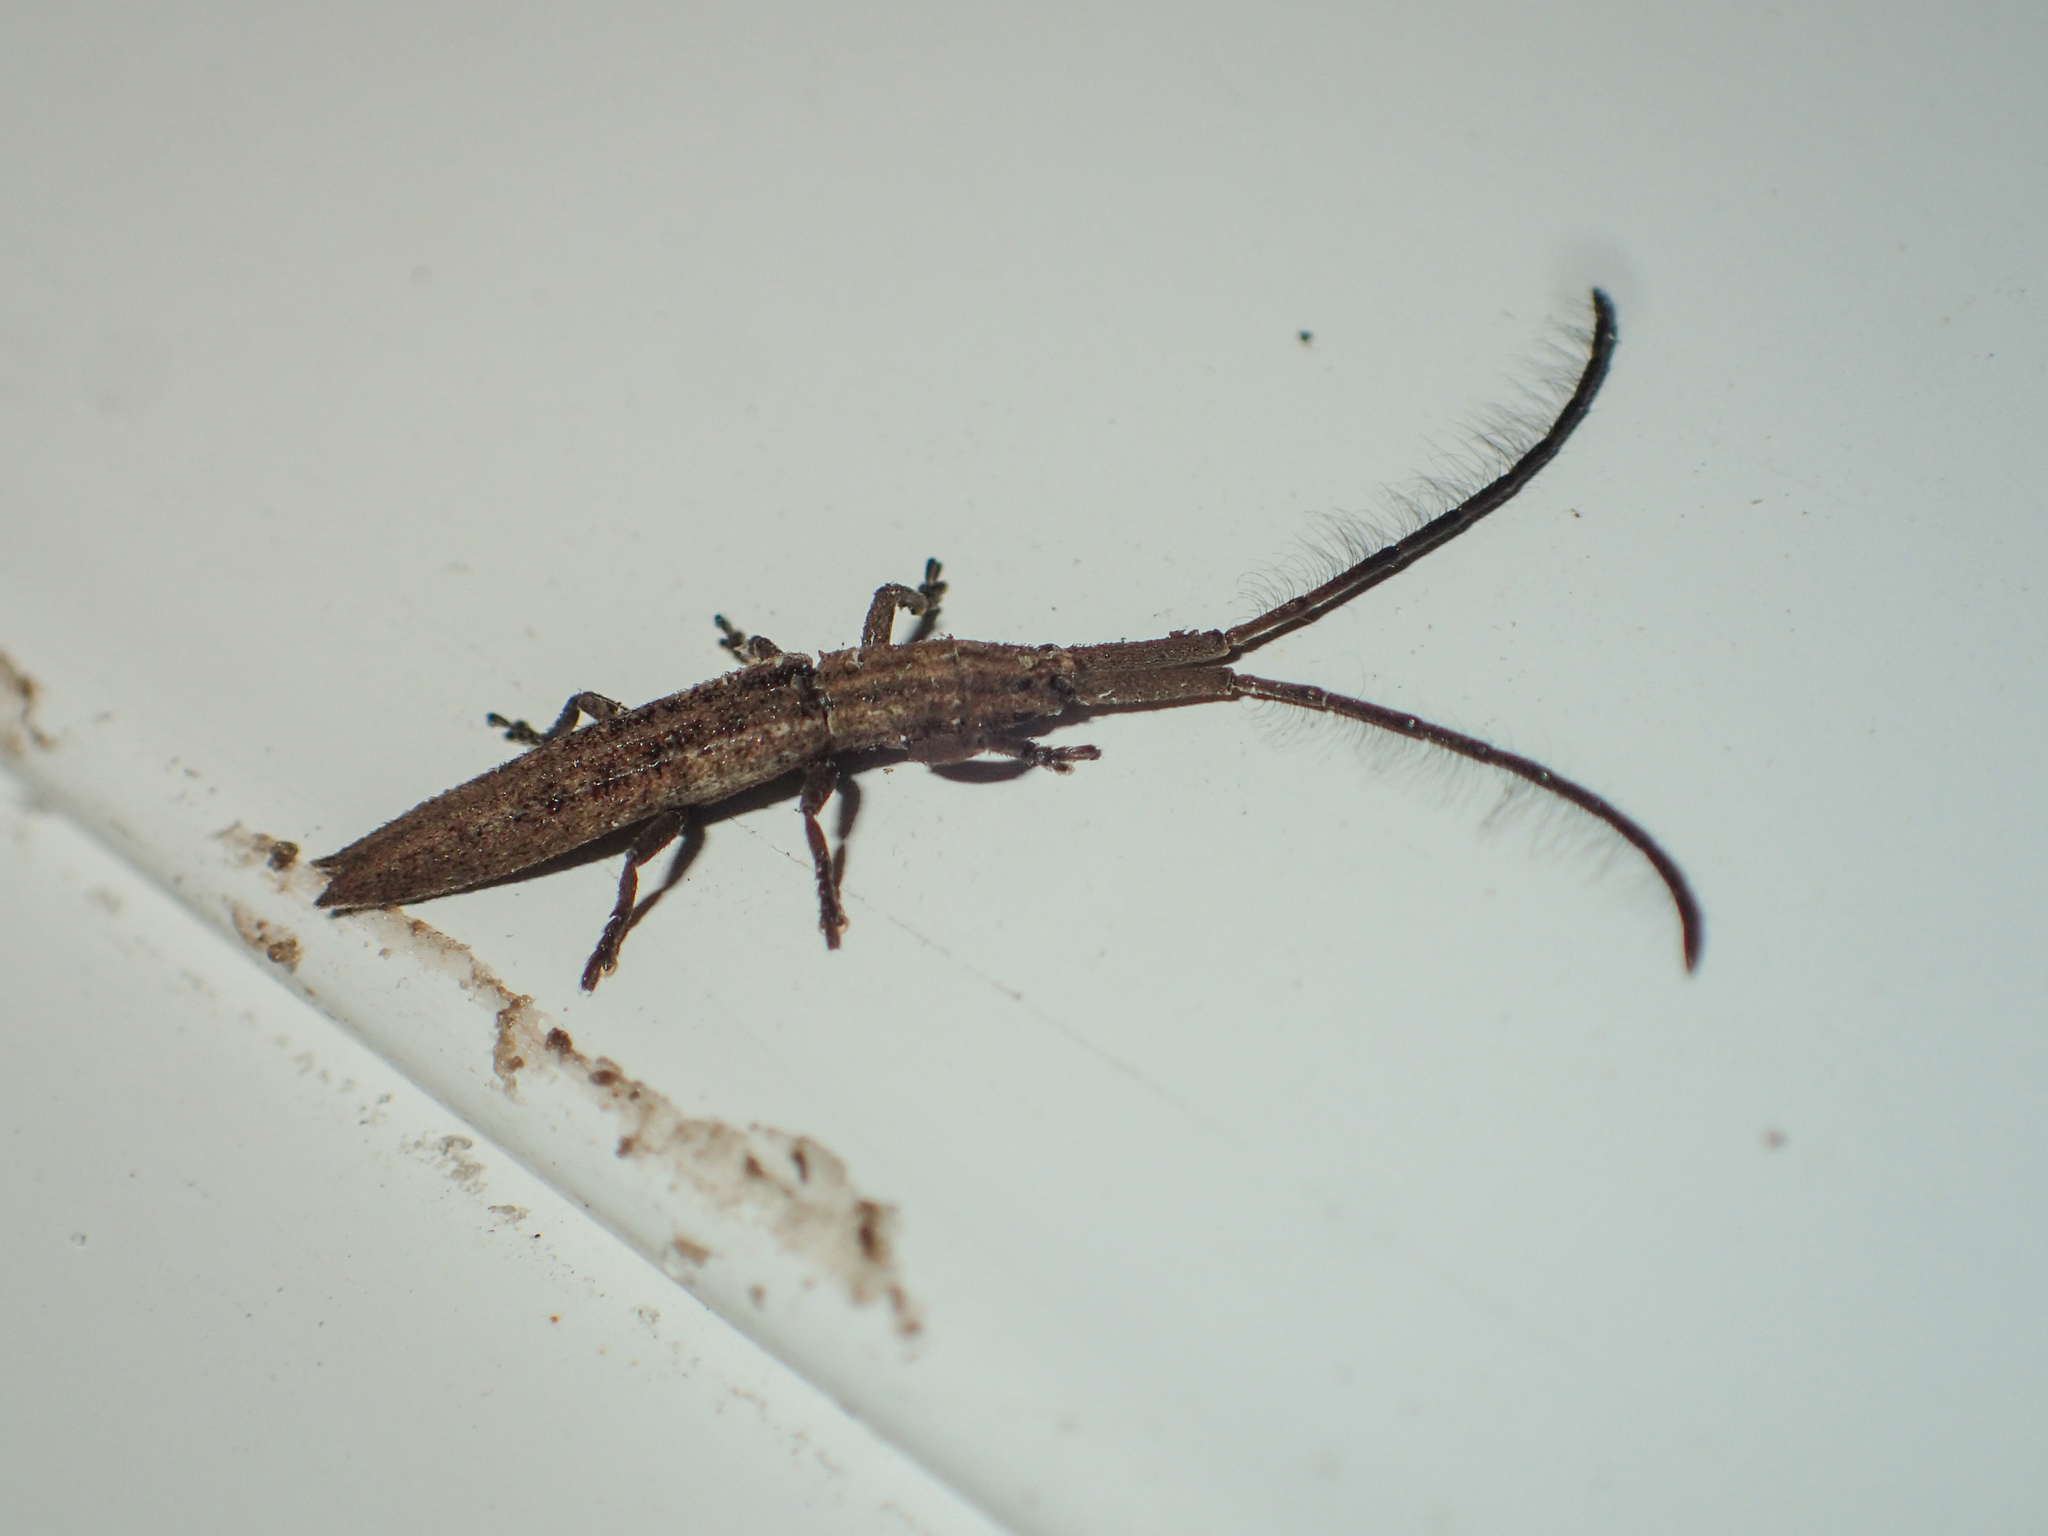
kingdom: Animalia
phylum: Arthropoda
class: Insecta
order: Coleoptera
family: Cerambycidae
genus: Tetraglenes
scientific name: Tetraglenes hirticornis
